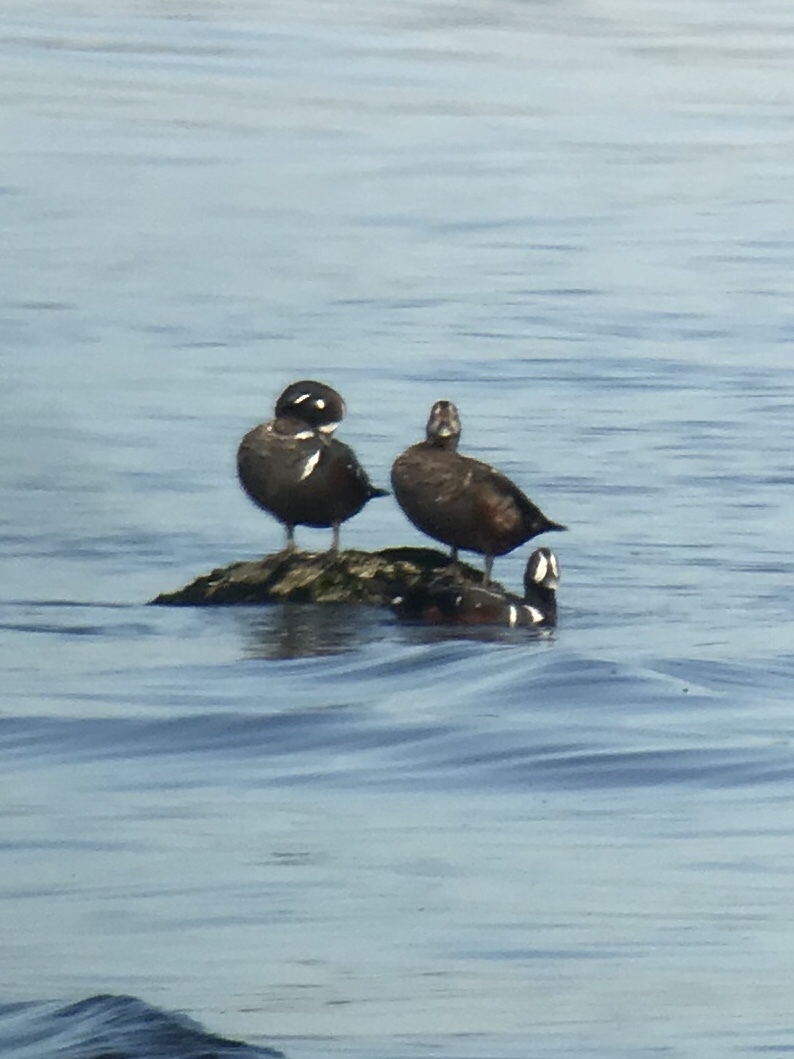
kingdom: Animalia
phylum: Chordata
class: Aves
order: Anseriformes
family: Anatidae
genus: Histrionicus
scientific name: Histrionicus histrionicus
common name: Harlequin duck
